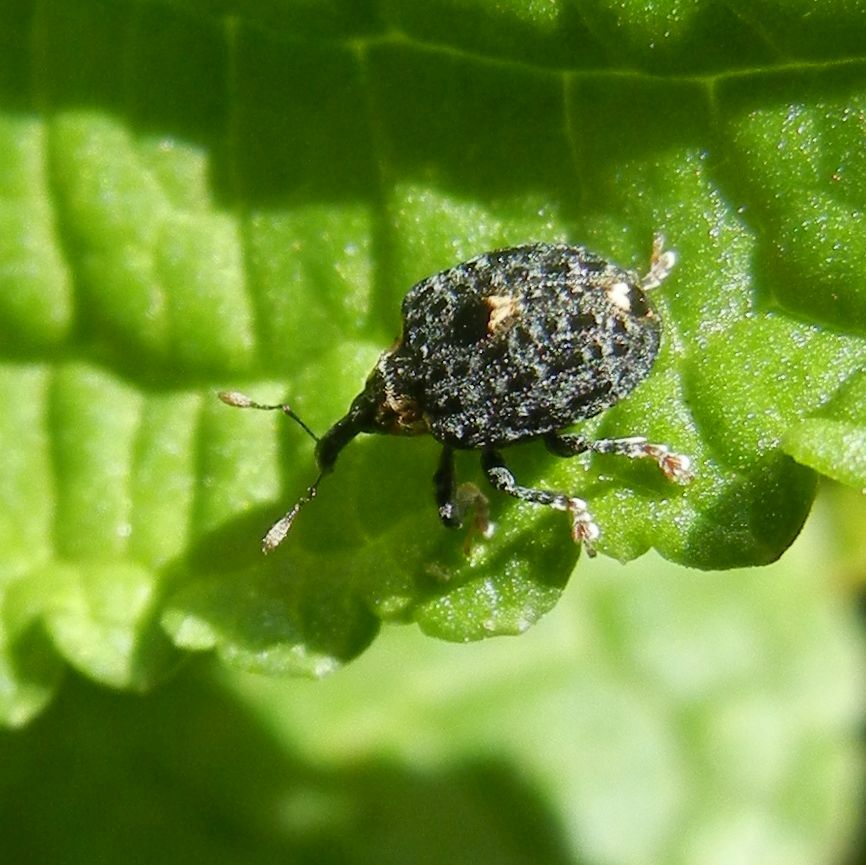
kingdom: Animalia
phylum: Arthropoda
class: Insecta
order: Coleoptera
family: Curculionidae
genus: Cionus
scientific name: Cionus tuberculosus
